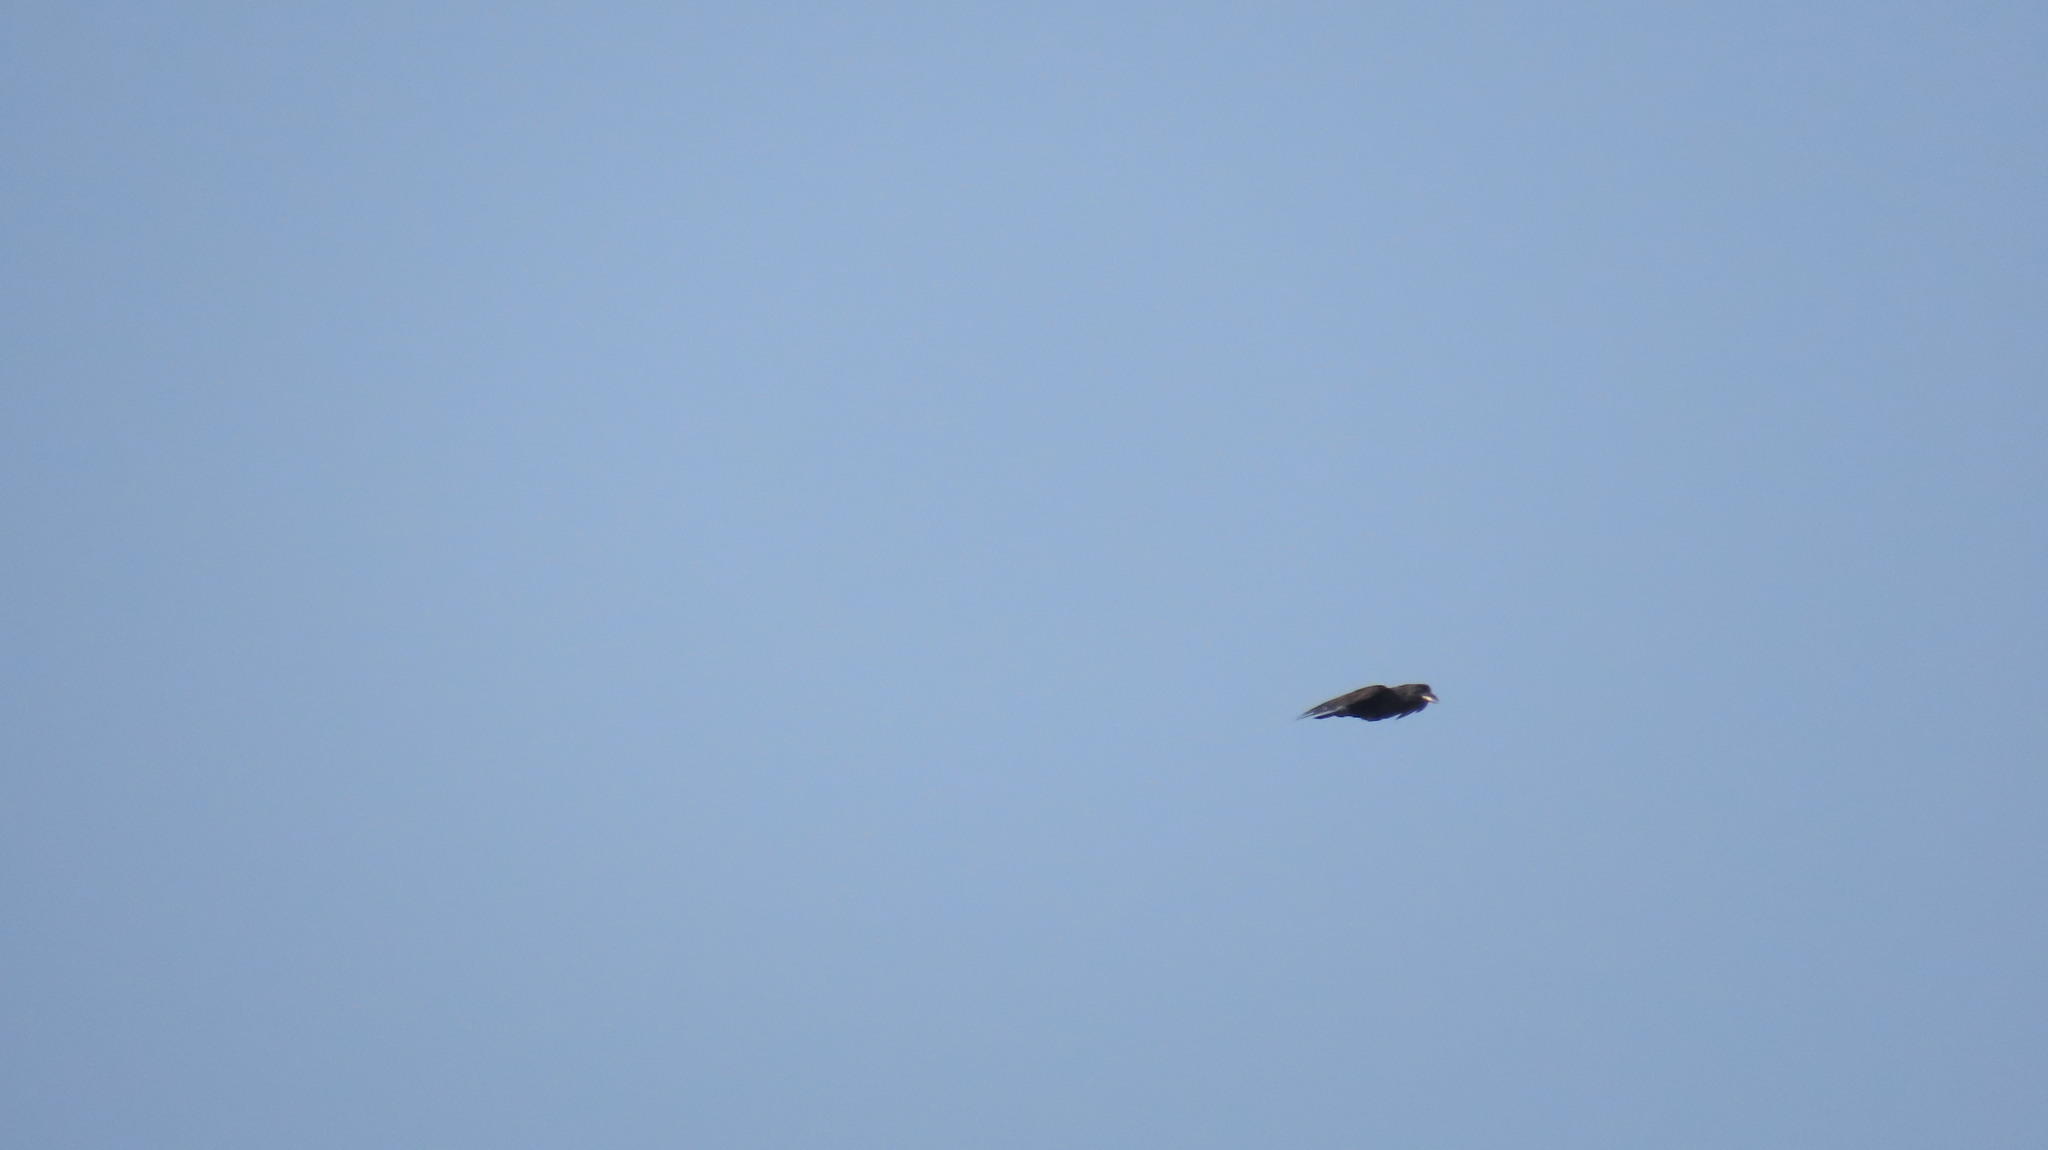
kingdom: Animalia
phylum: Chordata
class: Aves
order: Passeriformes
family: Corvidae
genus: Corvus
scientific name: Corvus macrorhynchos
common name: Large-billed crow
